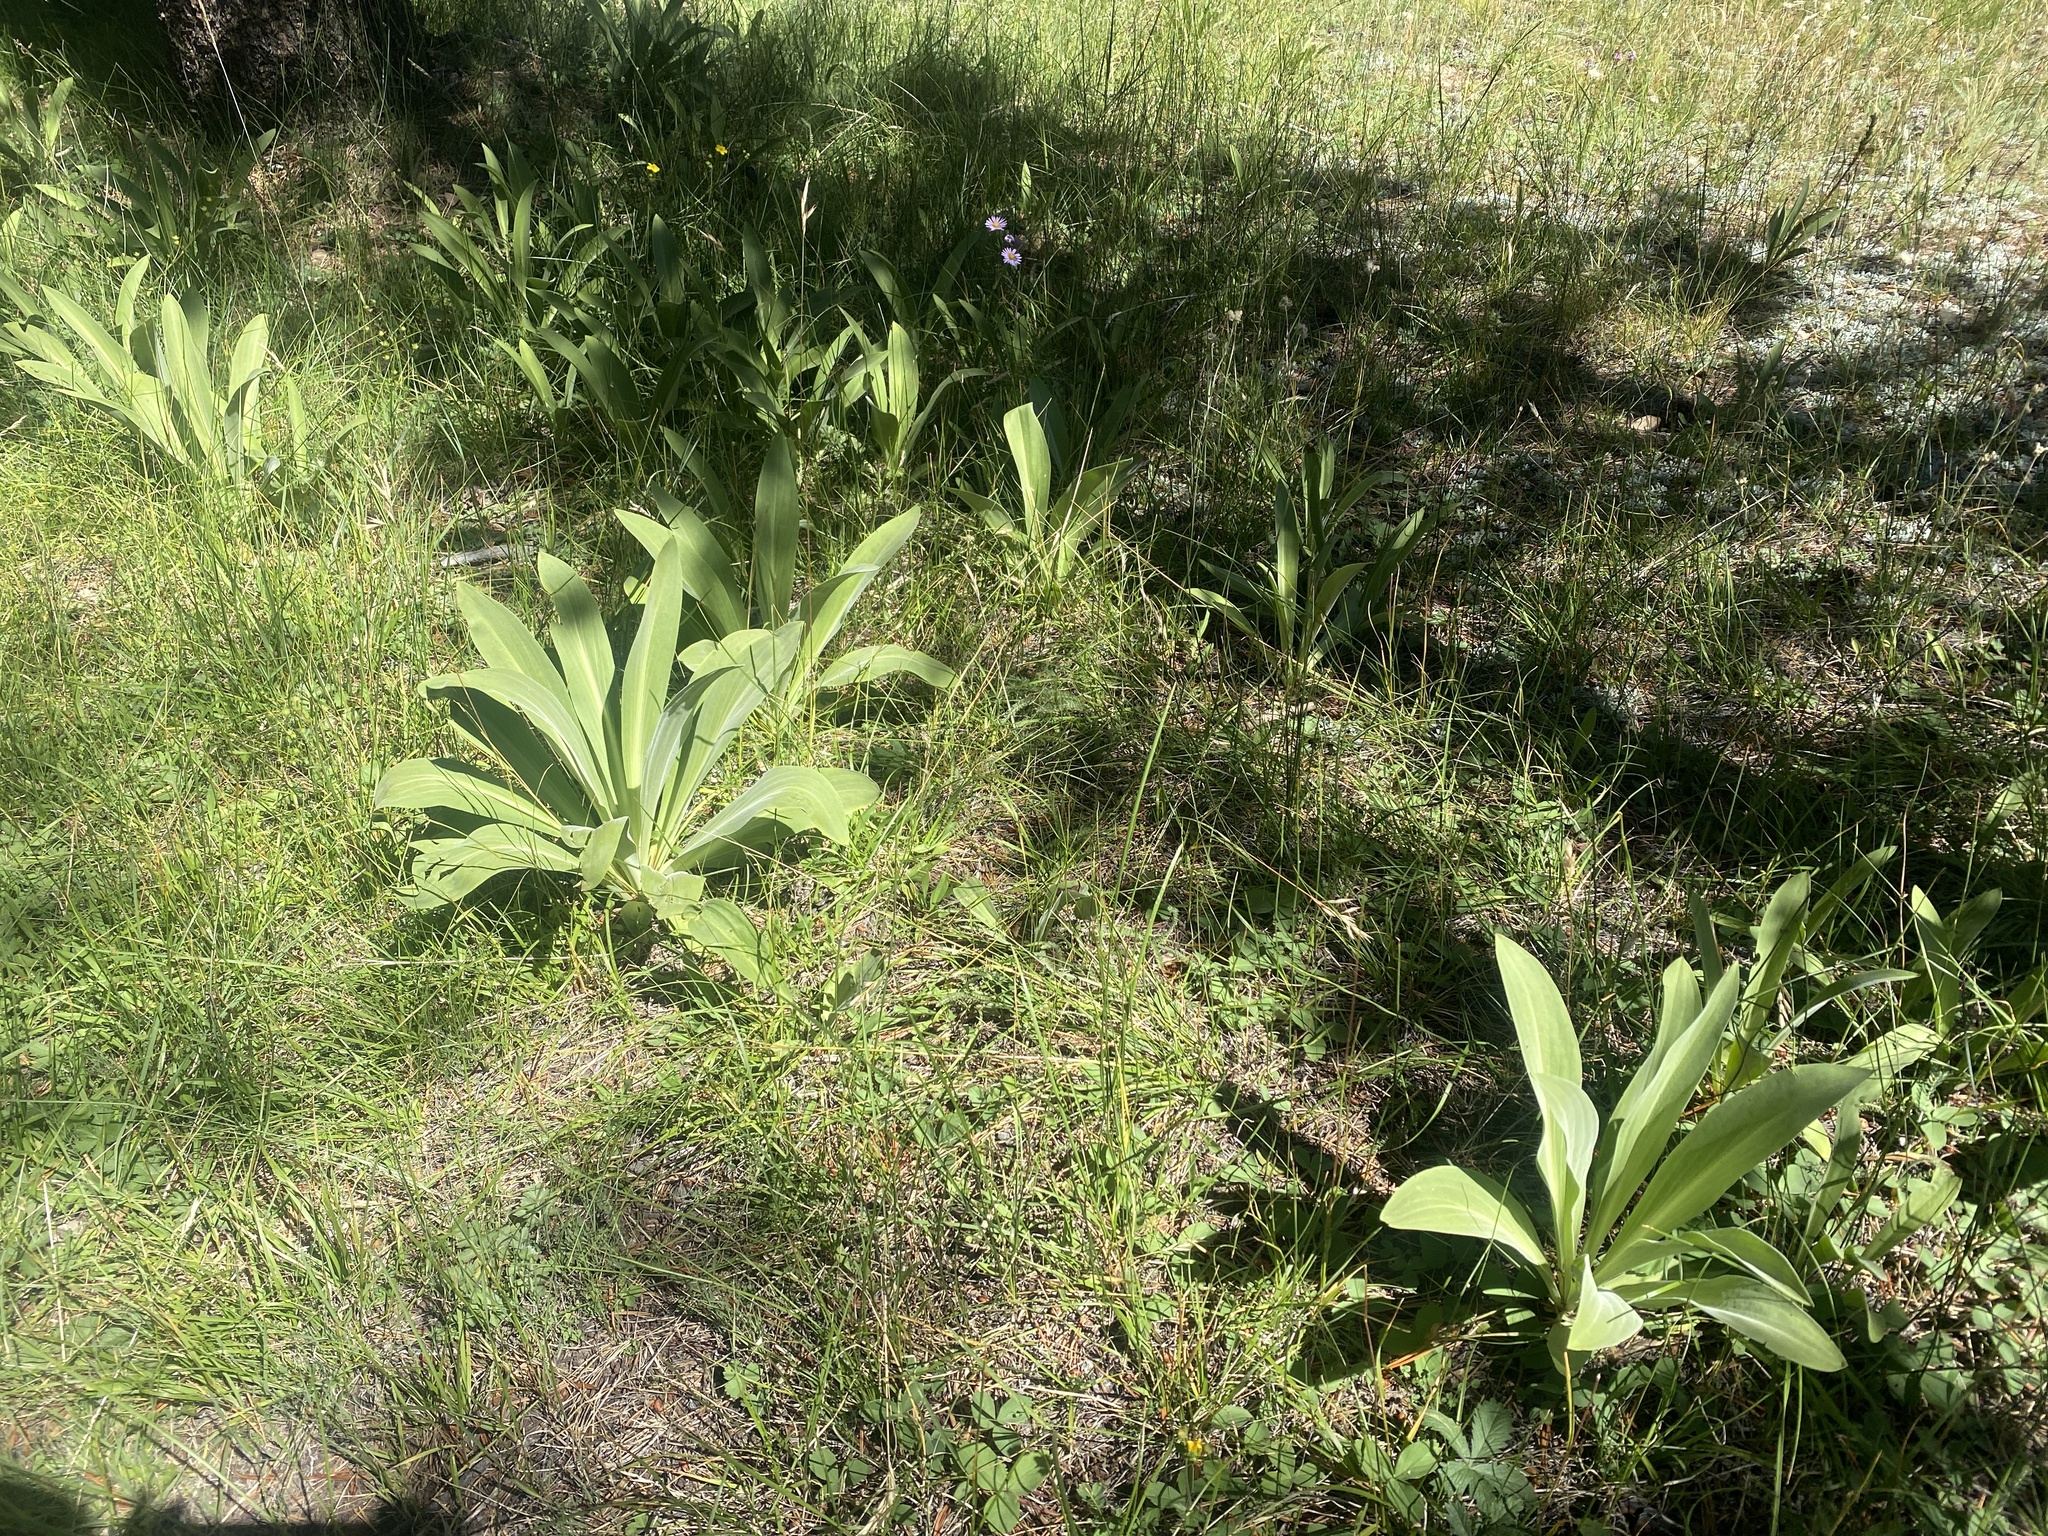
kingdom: Plantae
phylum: Tracheophyta
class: Magnoliopsida
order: Gentianales
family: Gentianaceae
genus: Frasera
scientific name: Frasera speciosa
